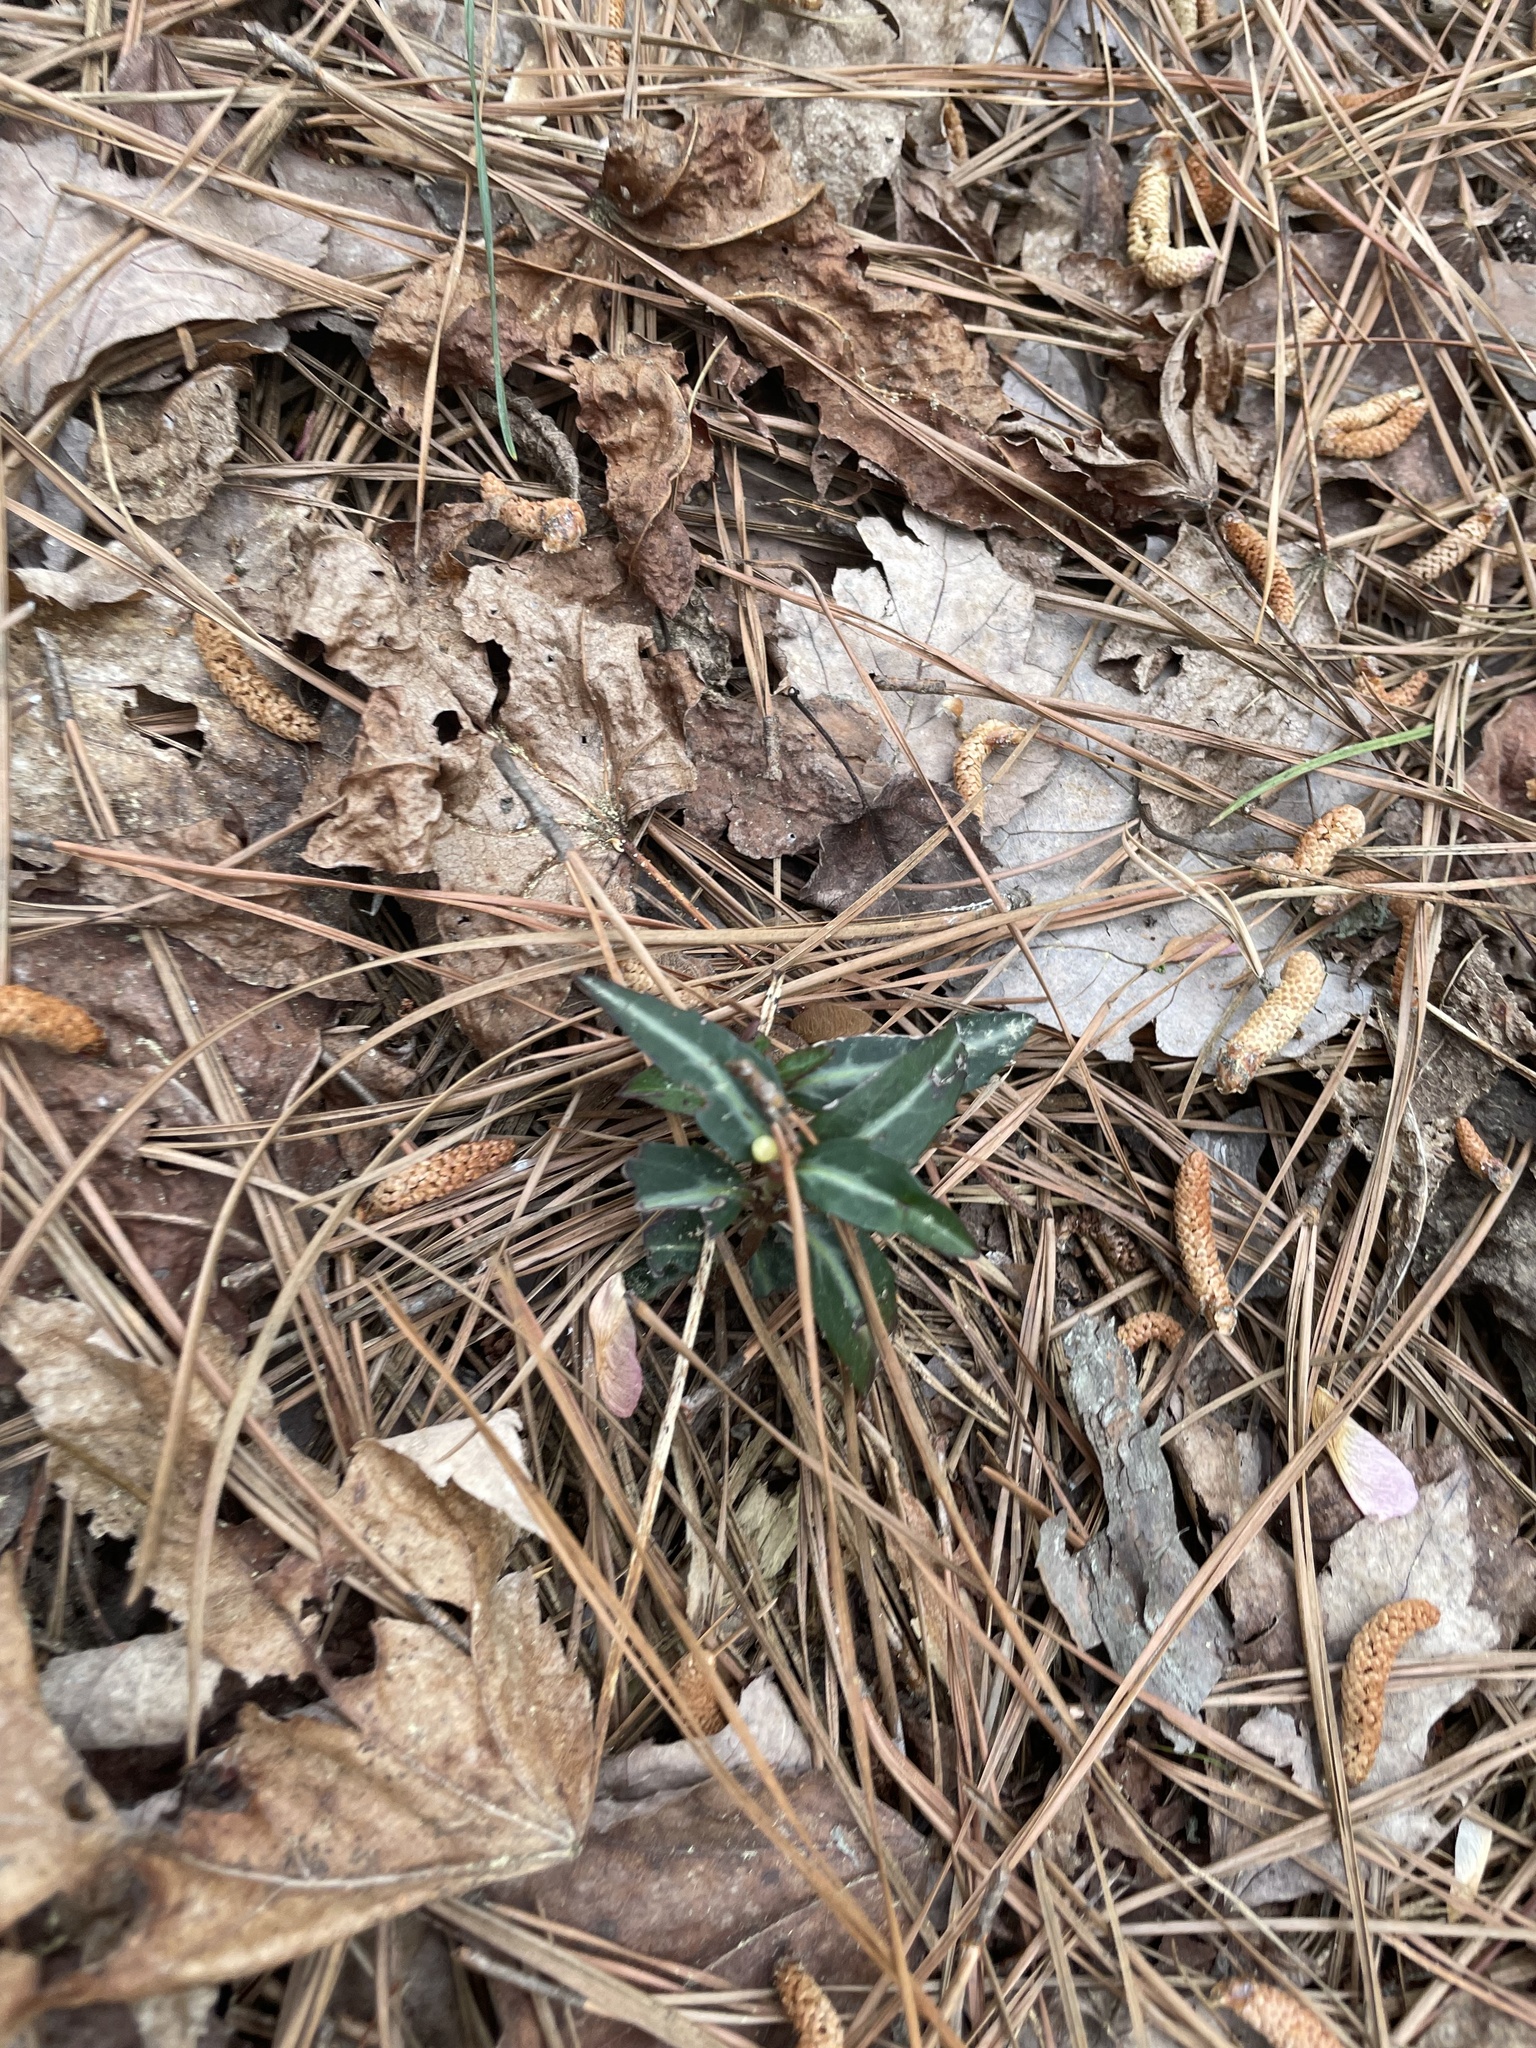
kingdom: Plantae
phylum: Tracheophyta
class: Magnoliopsida
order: Ericales
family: Ericaceae
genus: Chimaphila
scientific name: Chimaphila maculata
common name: Spotted pipsissewa
